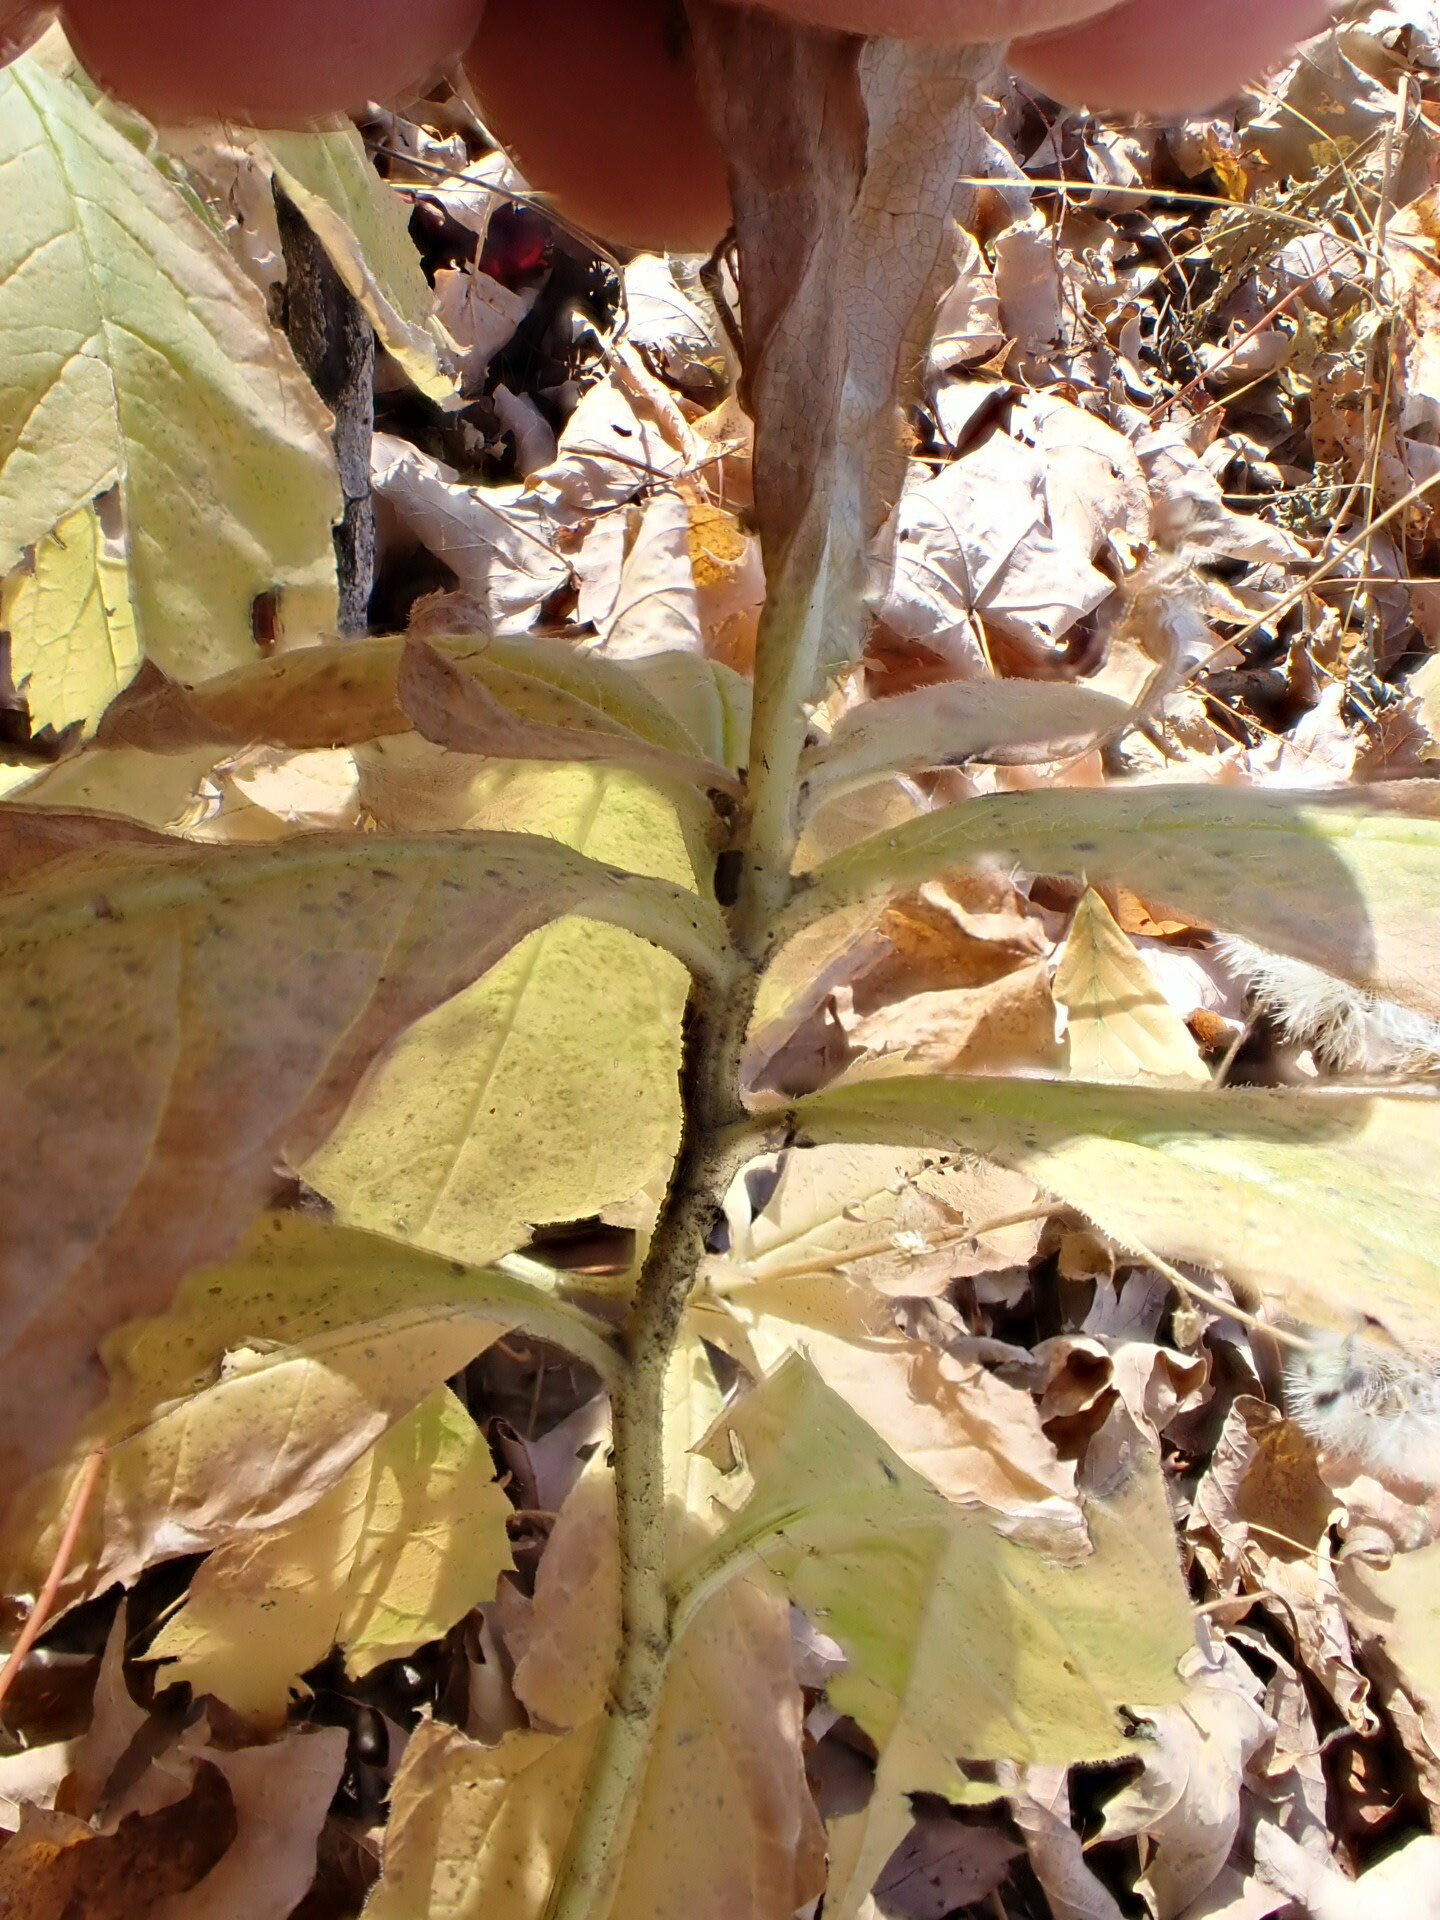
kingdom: Plantae
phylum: Tracheophyta
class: Magnoliopsida
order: Asterales
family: Asteraceae
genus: Oclemena
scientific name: Oclemena acuminata
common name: Mountain aster
